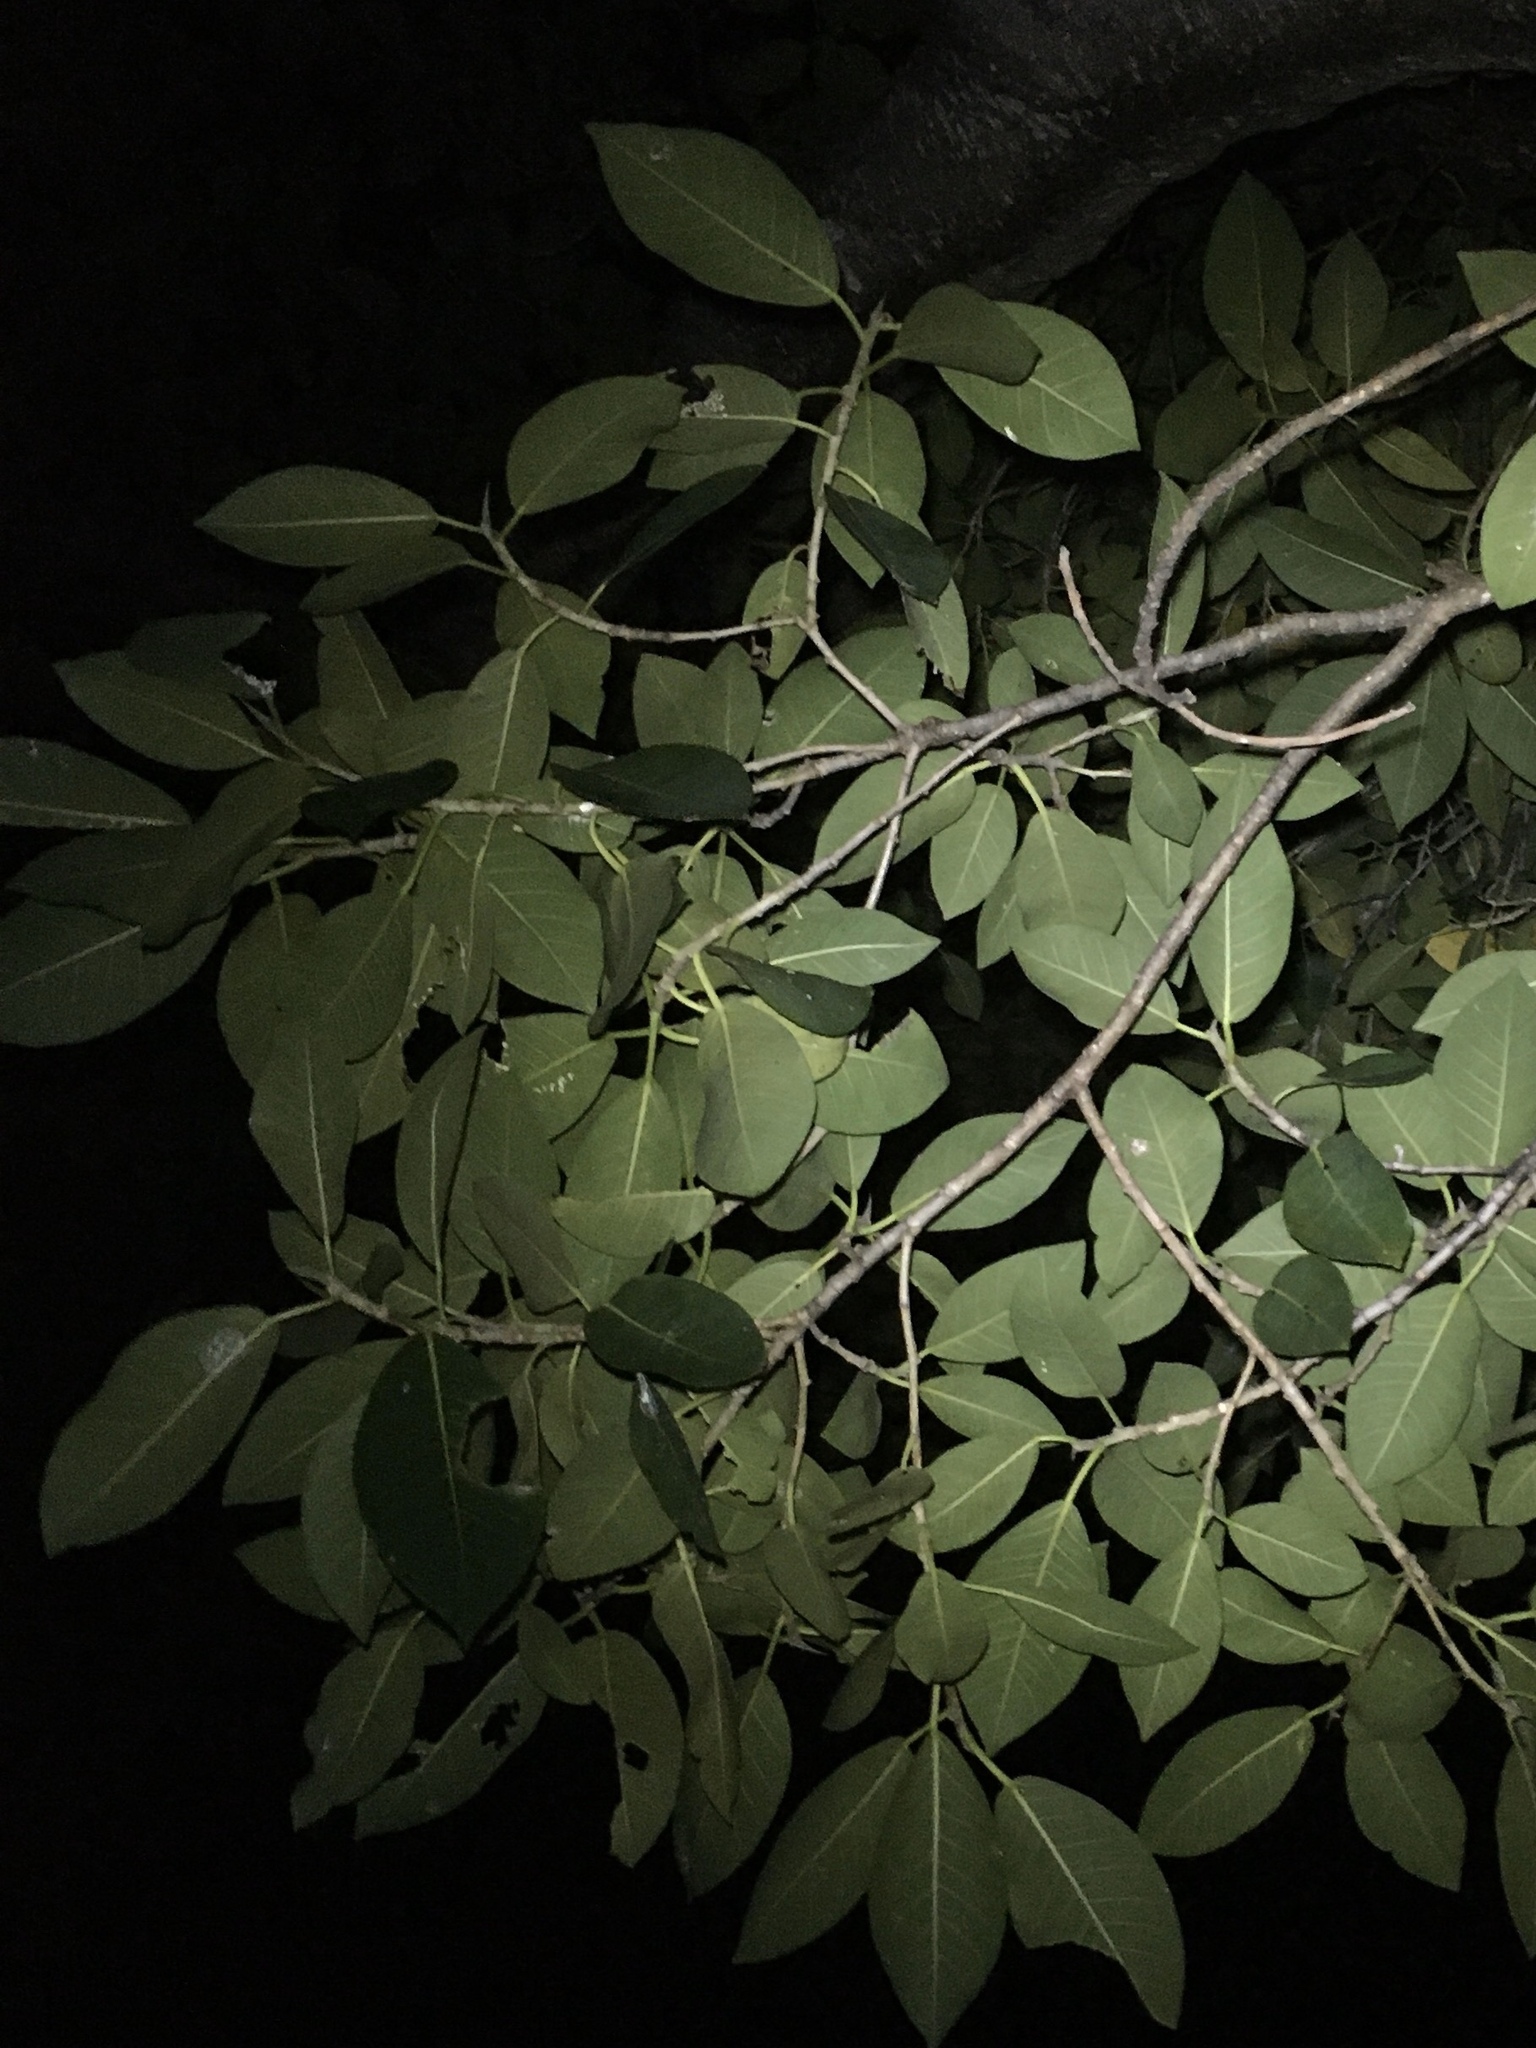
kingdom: Plantae
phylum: Tracheophyta
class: Magnoliopsida
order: Rosales
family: Moraceae
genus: Ficus
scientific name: Ficus aurea
